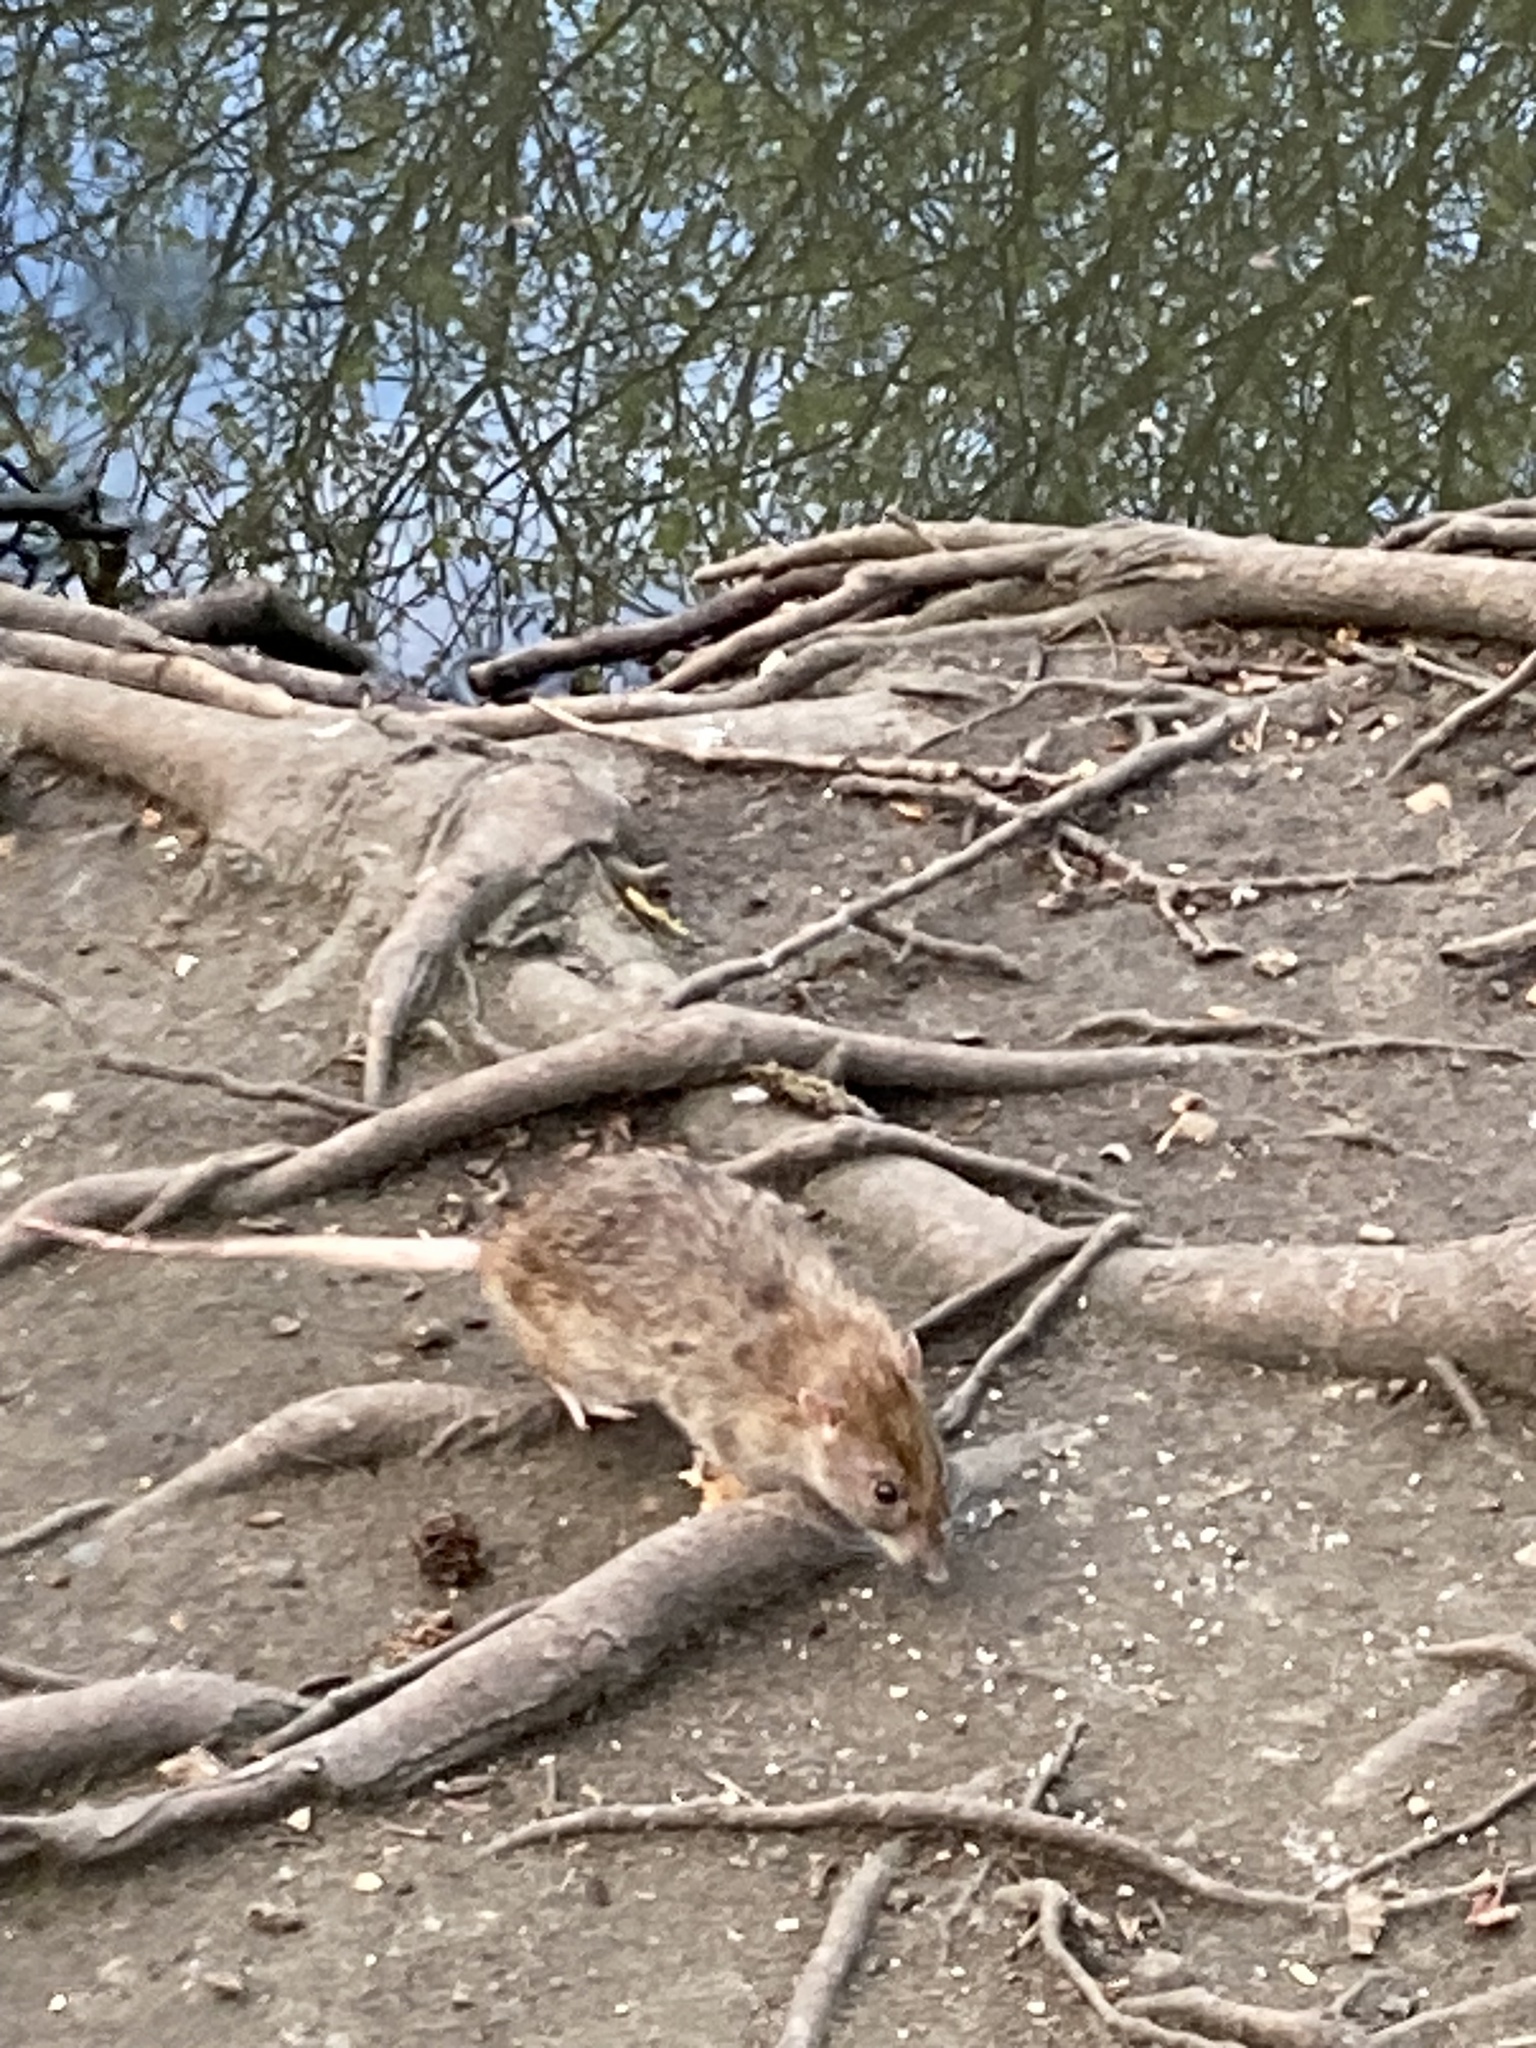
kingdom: Animalia
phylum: Chordata
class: Mammalia
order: Rodentia
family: Muridae
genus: Rattus
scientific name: Rattus norvegicus
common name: Brown rat
